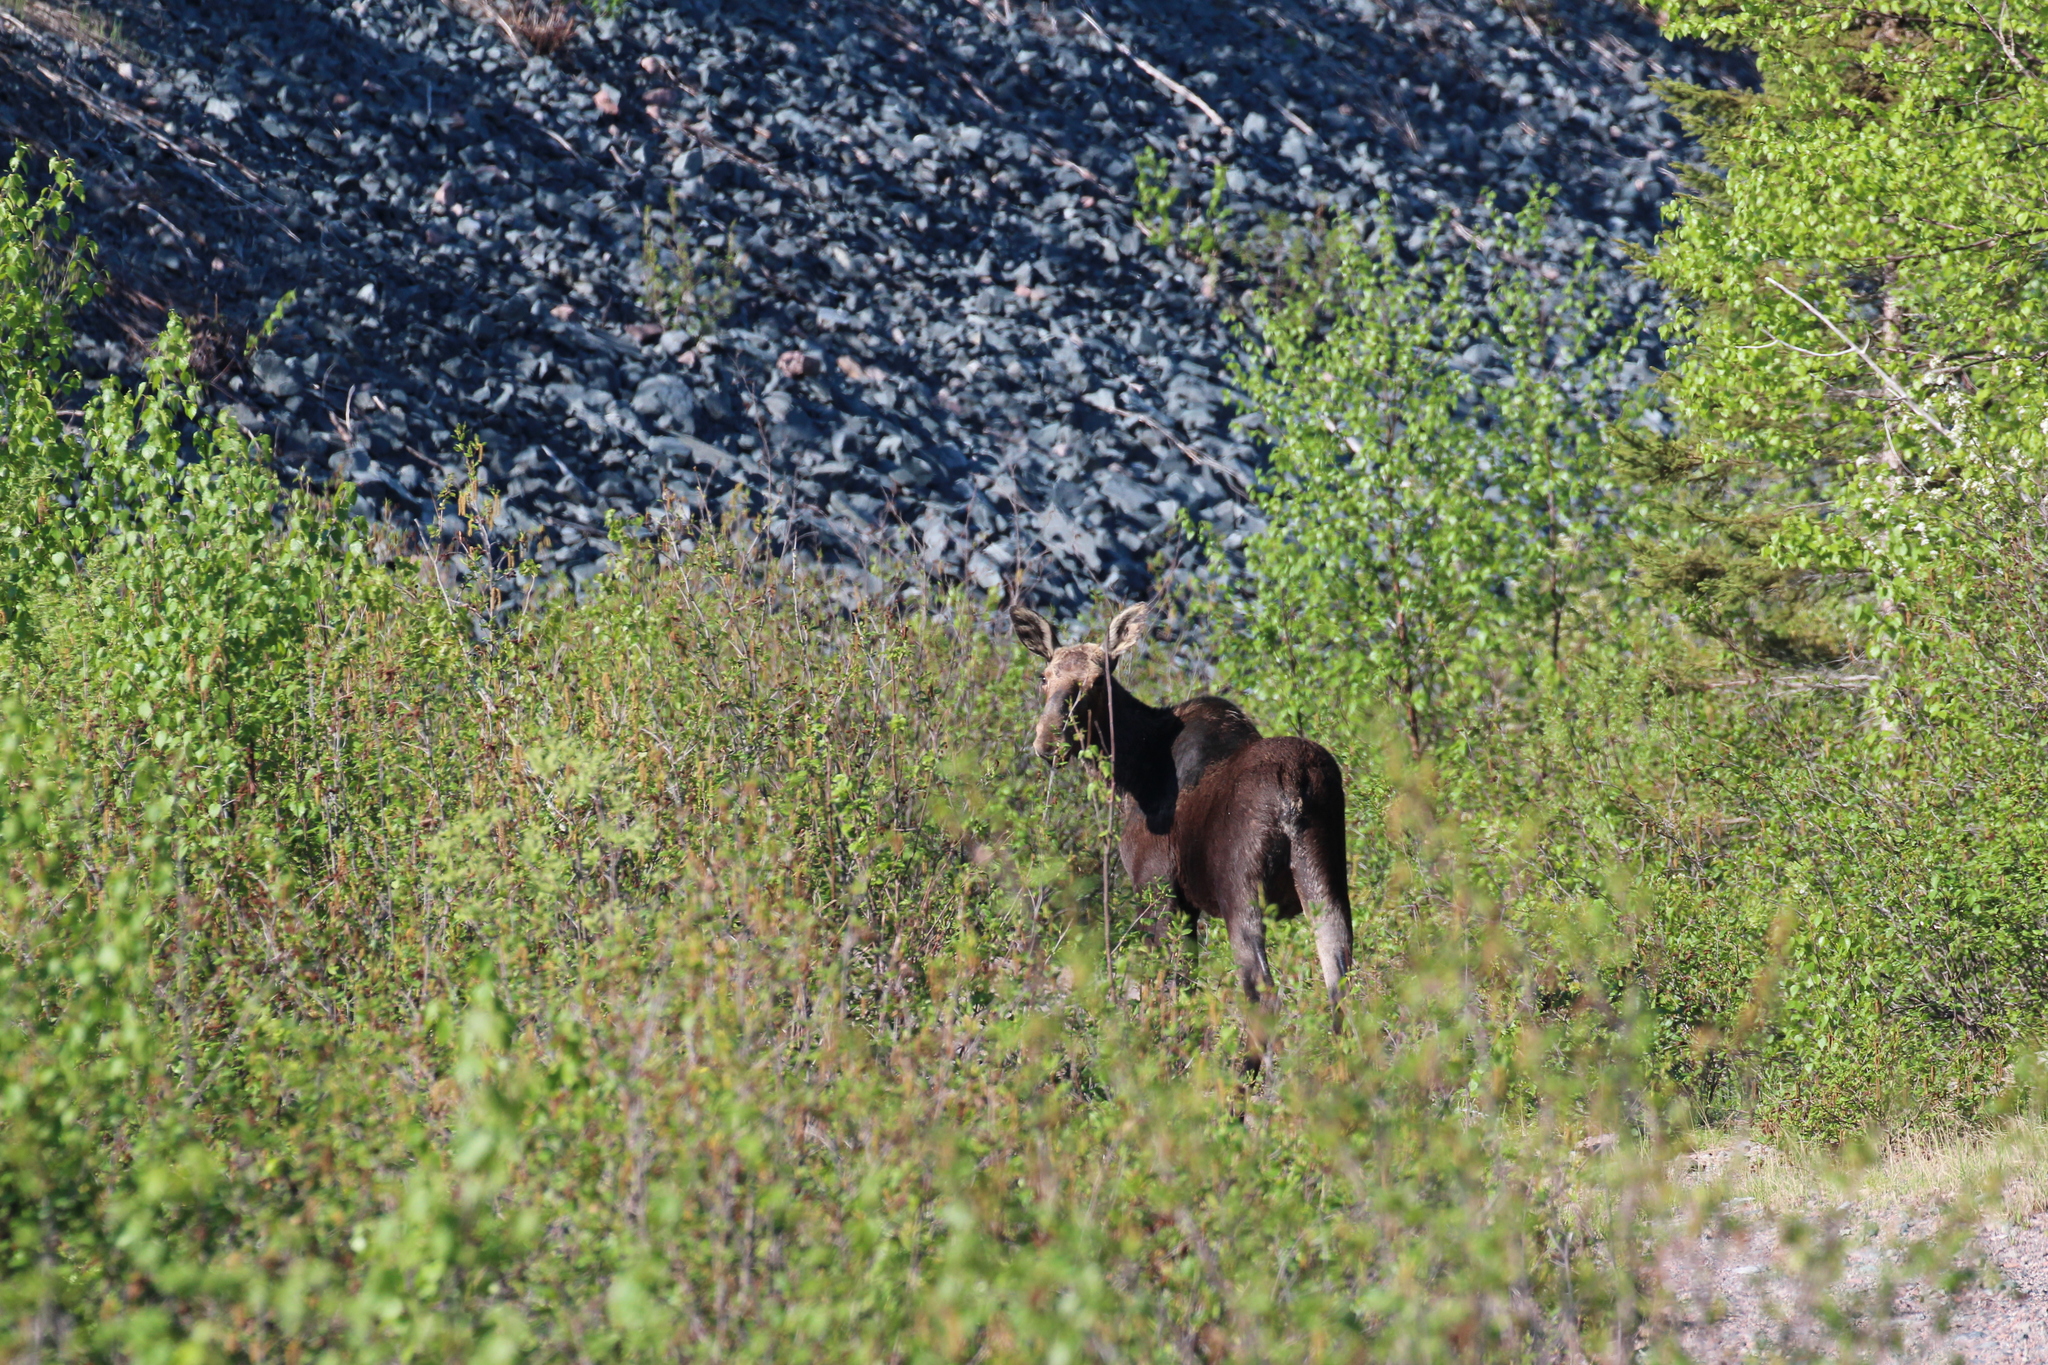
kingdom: Animalia
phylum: Chordata
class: Mammalia
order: Artiodactyla
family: Cervidae
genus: Alces
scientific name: Alces alces
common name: Moose
